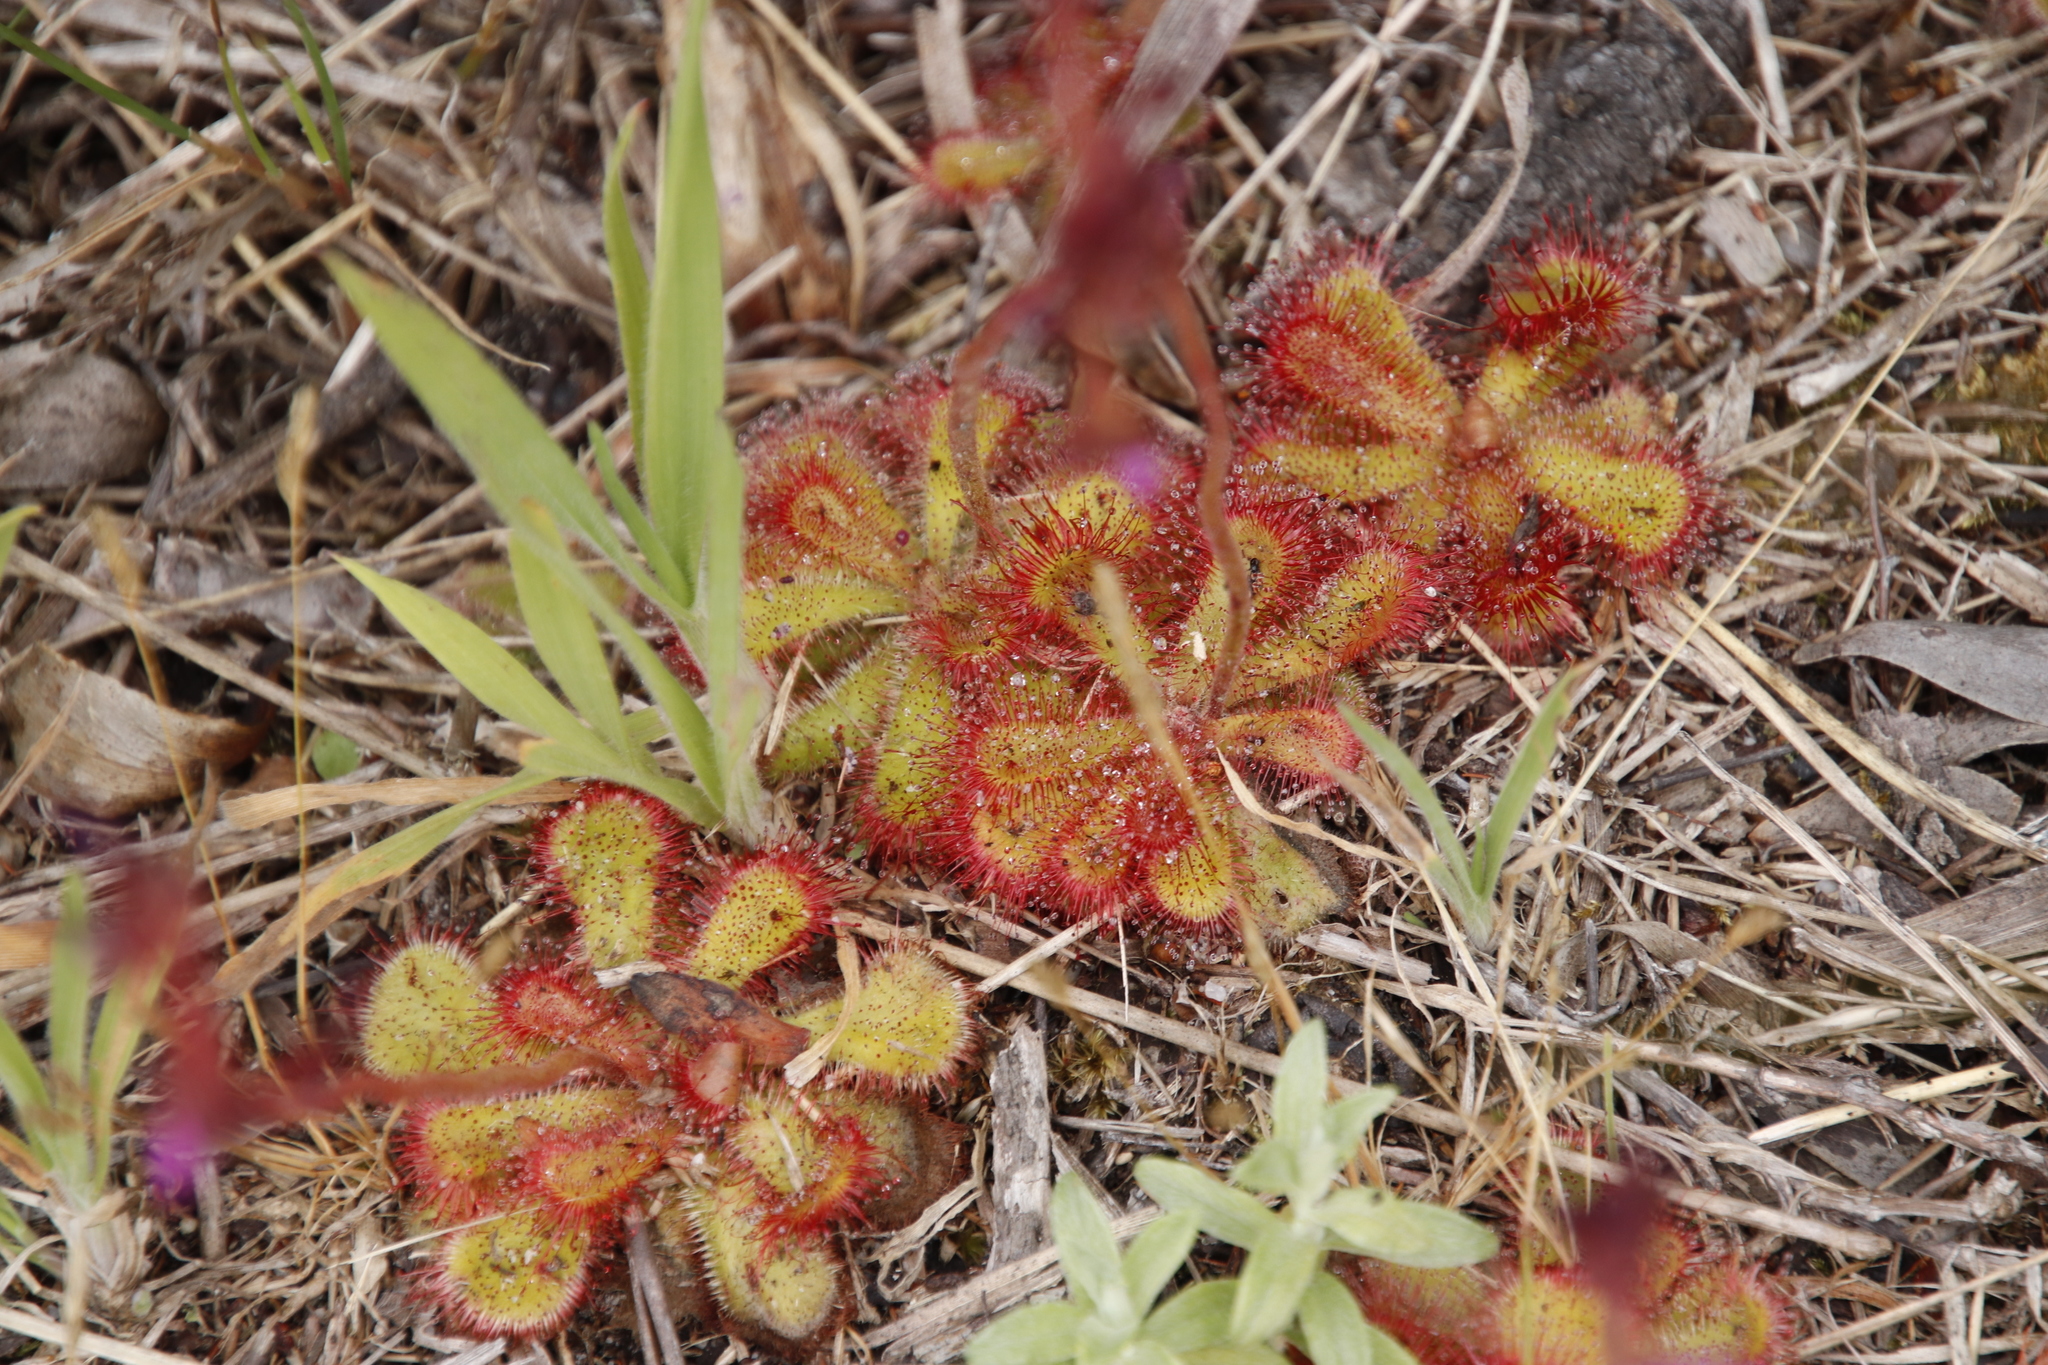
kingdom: Plantae
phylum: Tracheophyta
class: Magnoliopsida
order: Caryophyllales
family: Droseraceae
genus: Drosera
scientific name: Drosera cuneifolia
